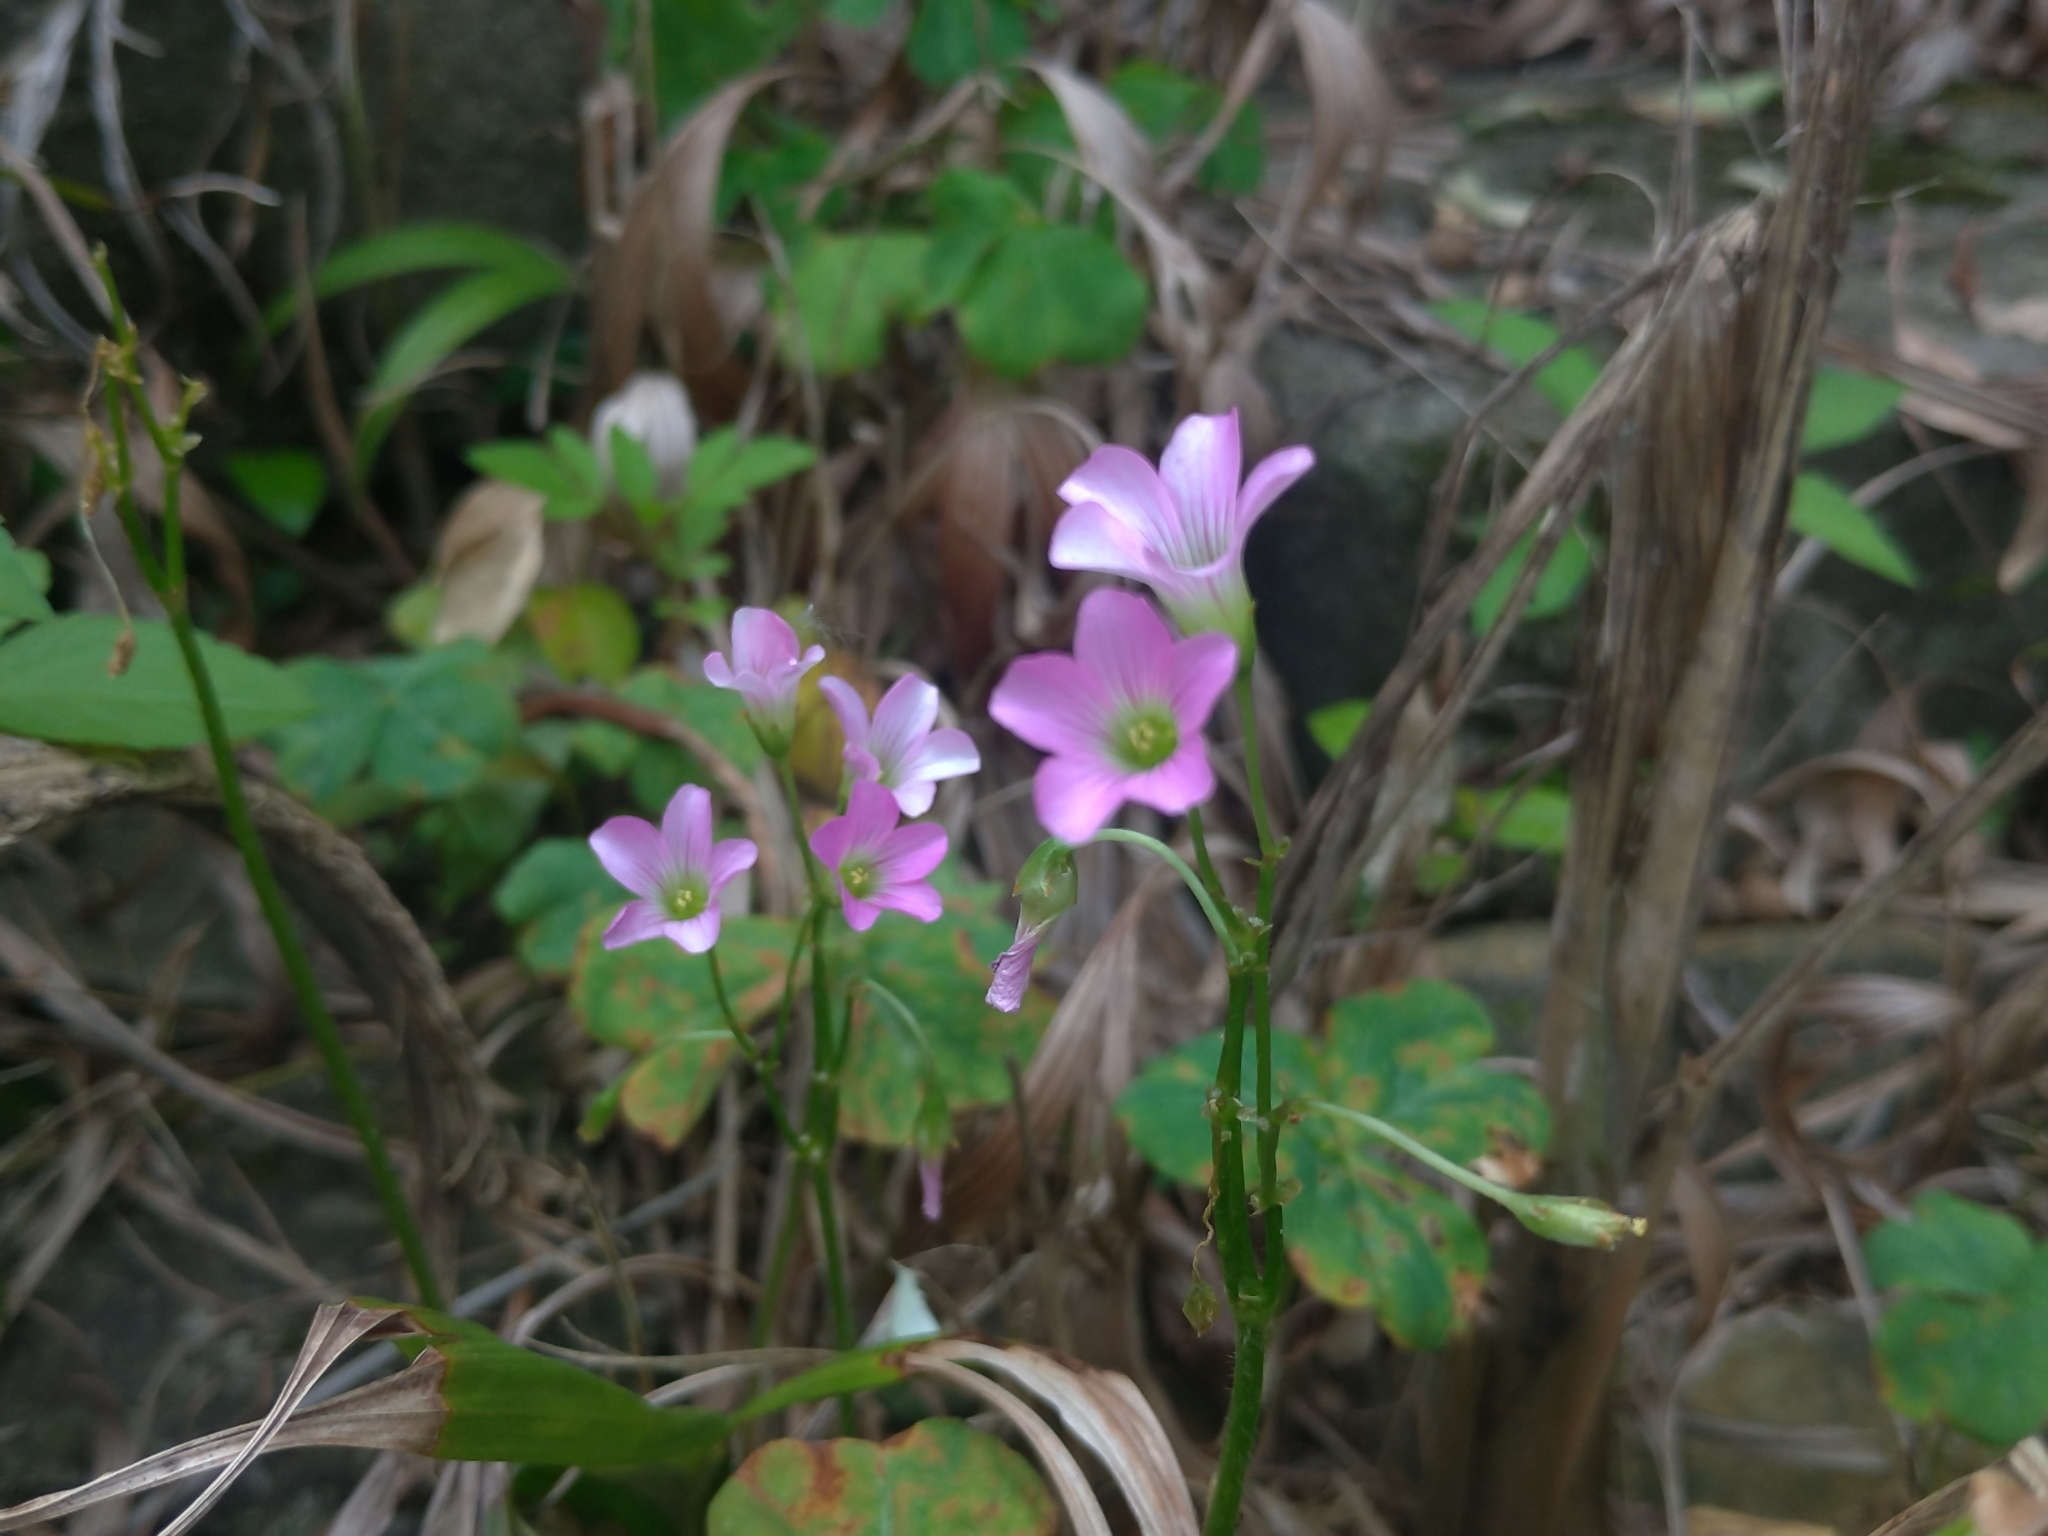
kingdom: Plantae
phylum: Tracheophyta
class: Magnoliopsida
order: Oxalidales
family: Oxalidaceae
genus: Oxalis
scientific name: Oxalis debilis
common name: Large-flowered pink-sorrel
